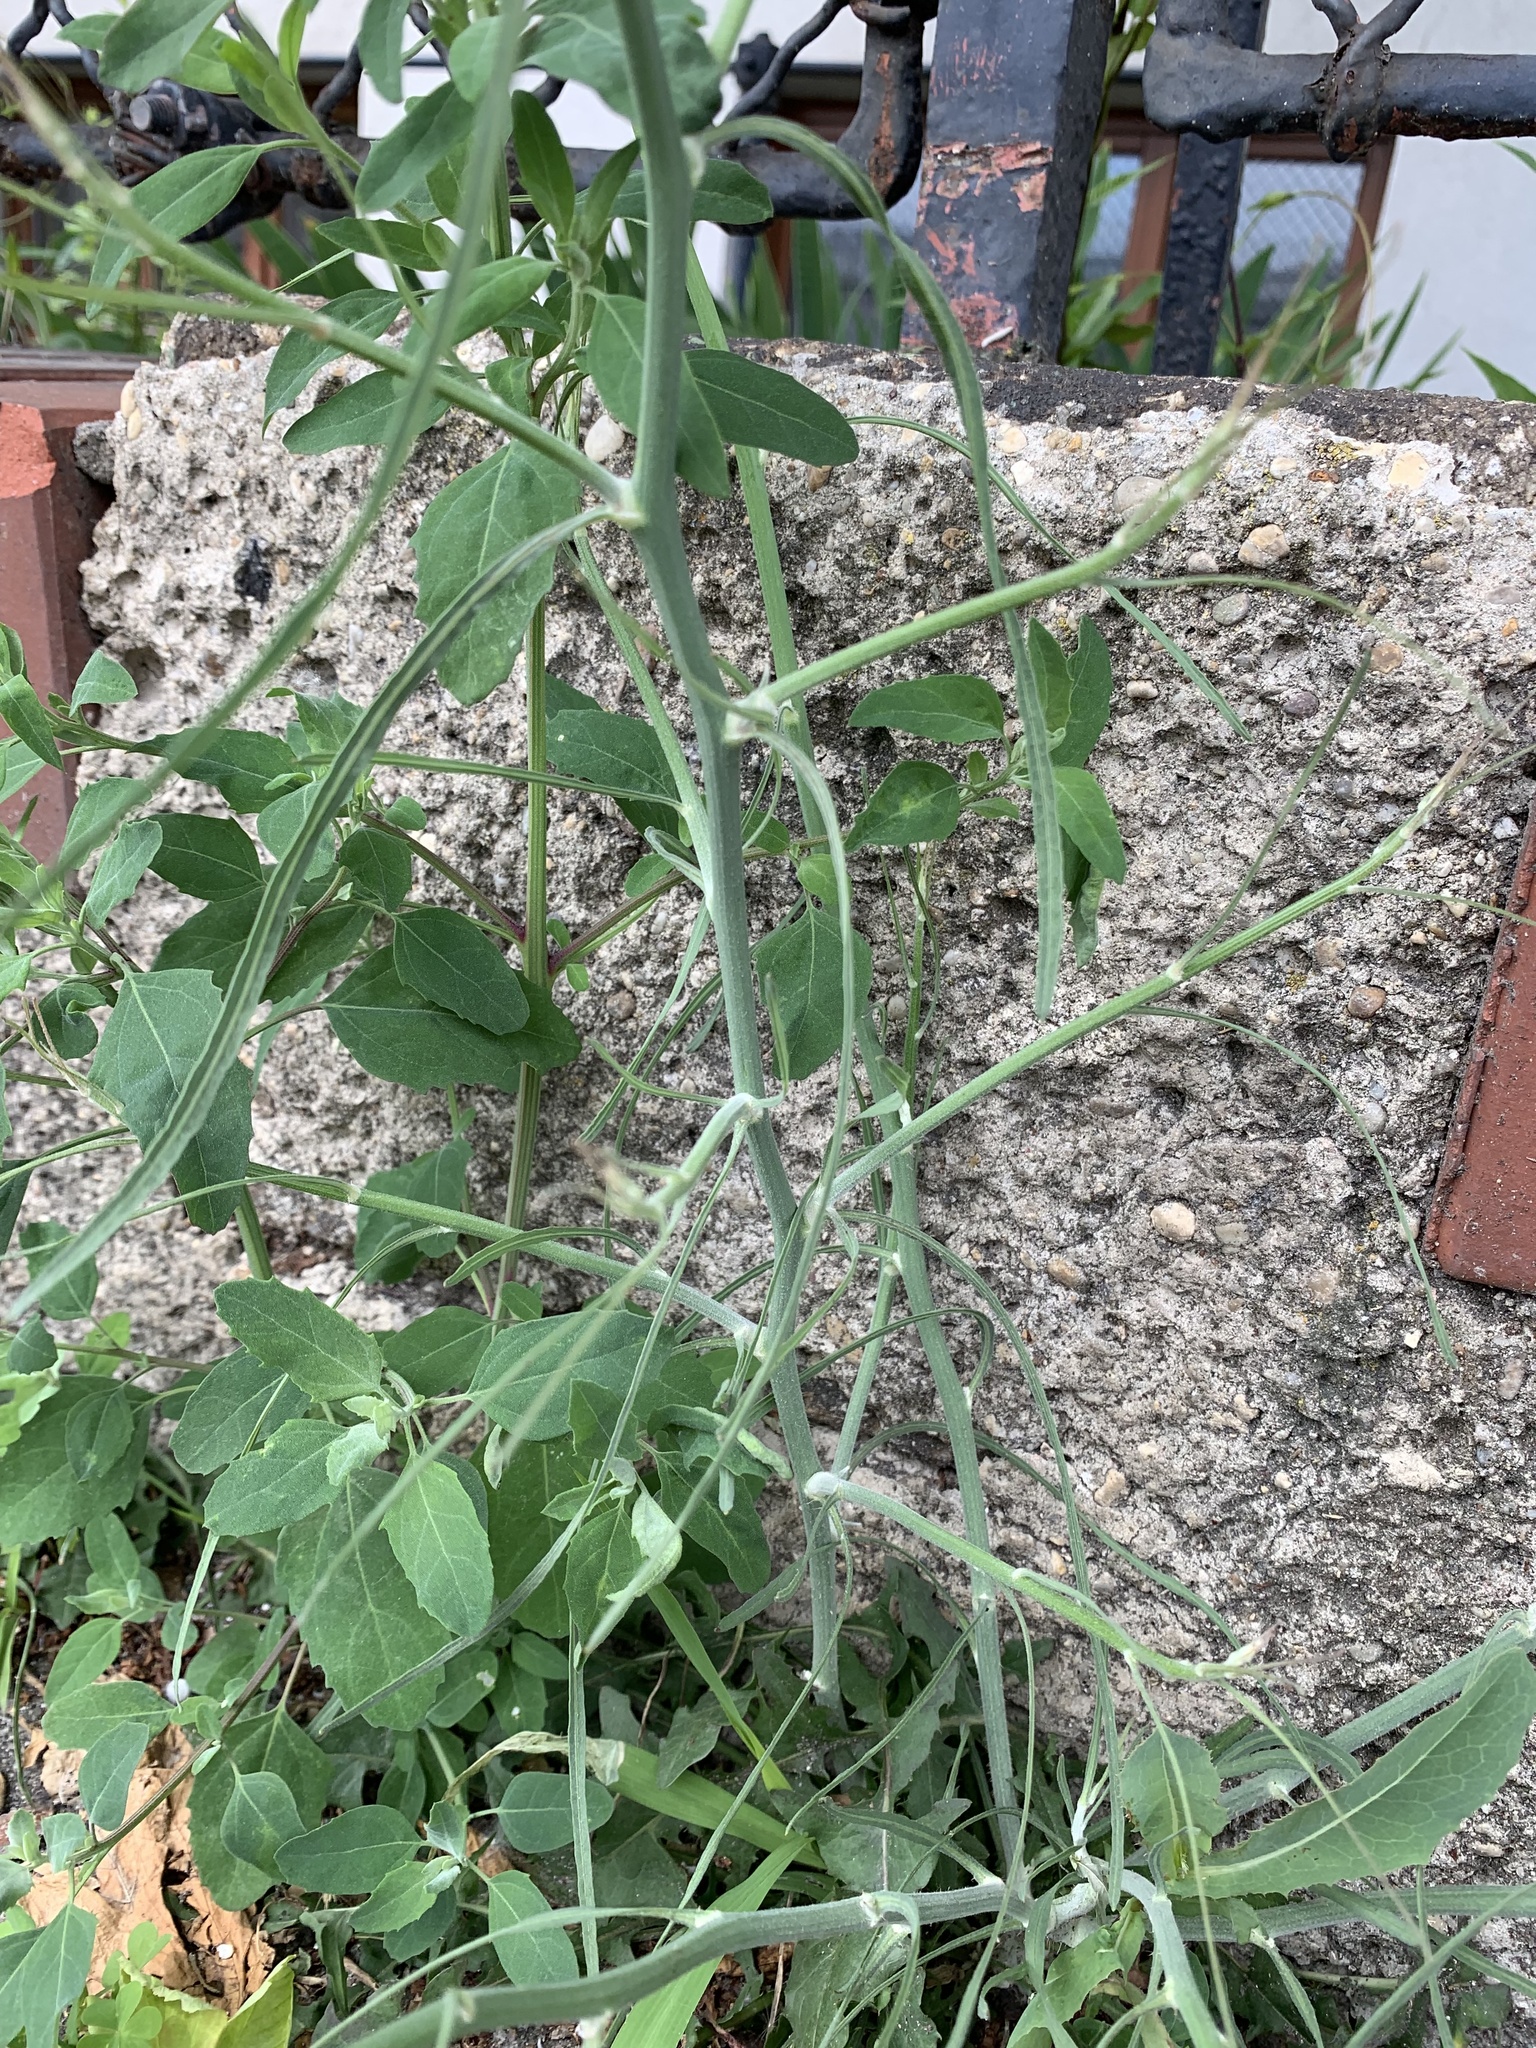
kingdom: Plantae
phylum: Tracheophyta
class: Magnoliopsida
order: Asterales
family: Asteraceae
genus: Chondrilla
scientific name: Chondrilla juncea
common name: Skeleton weed
